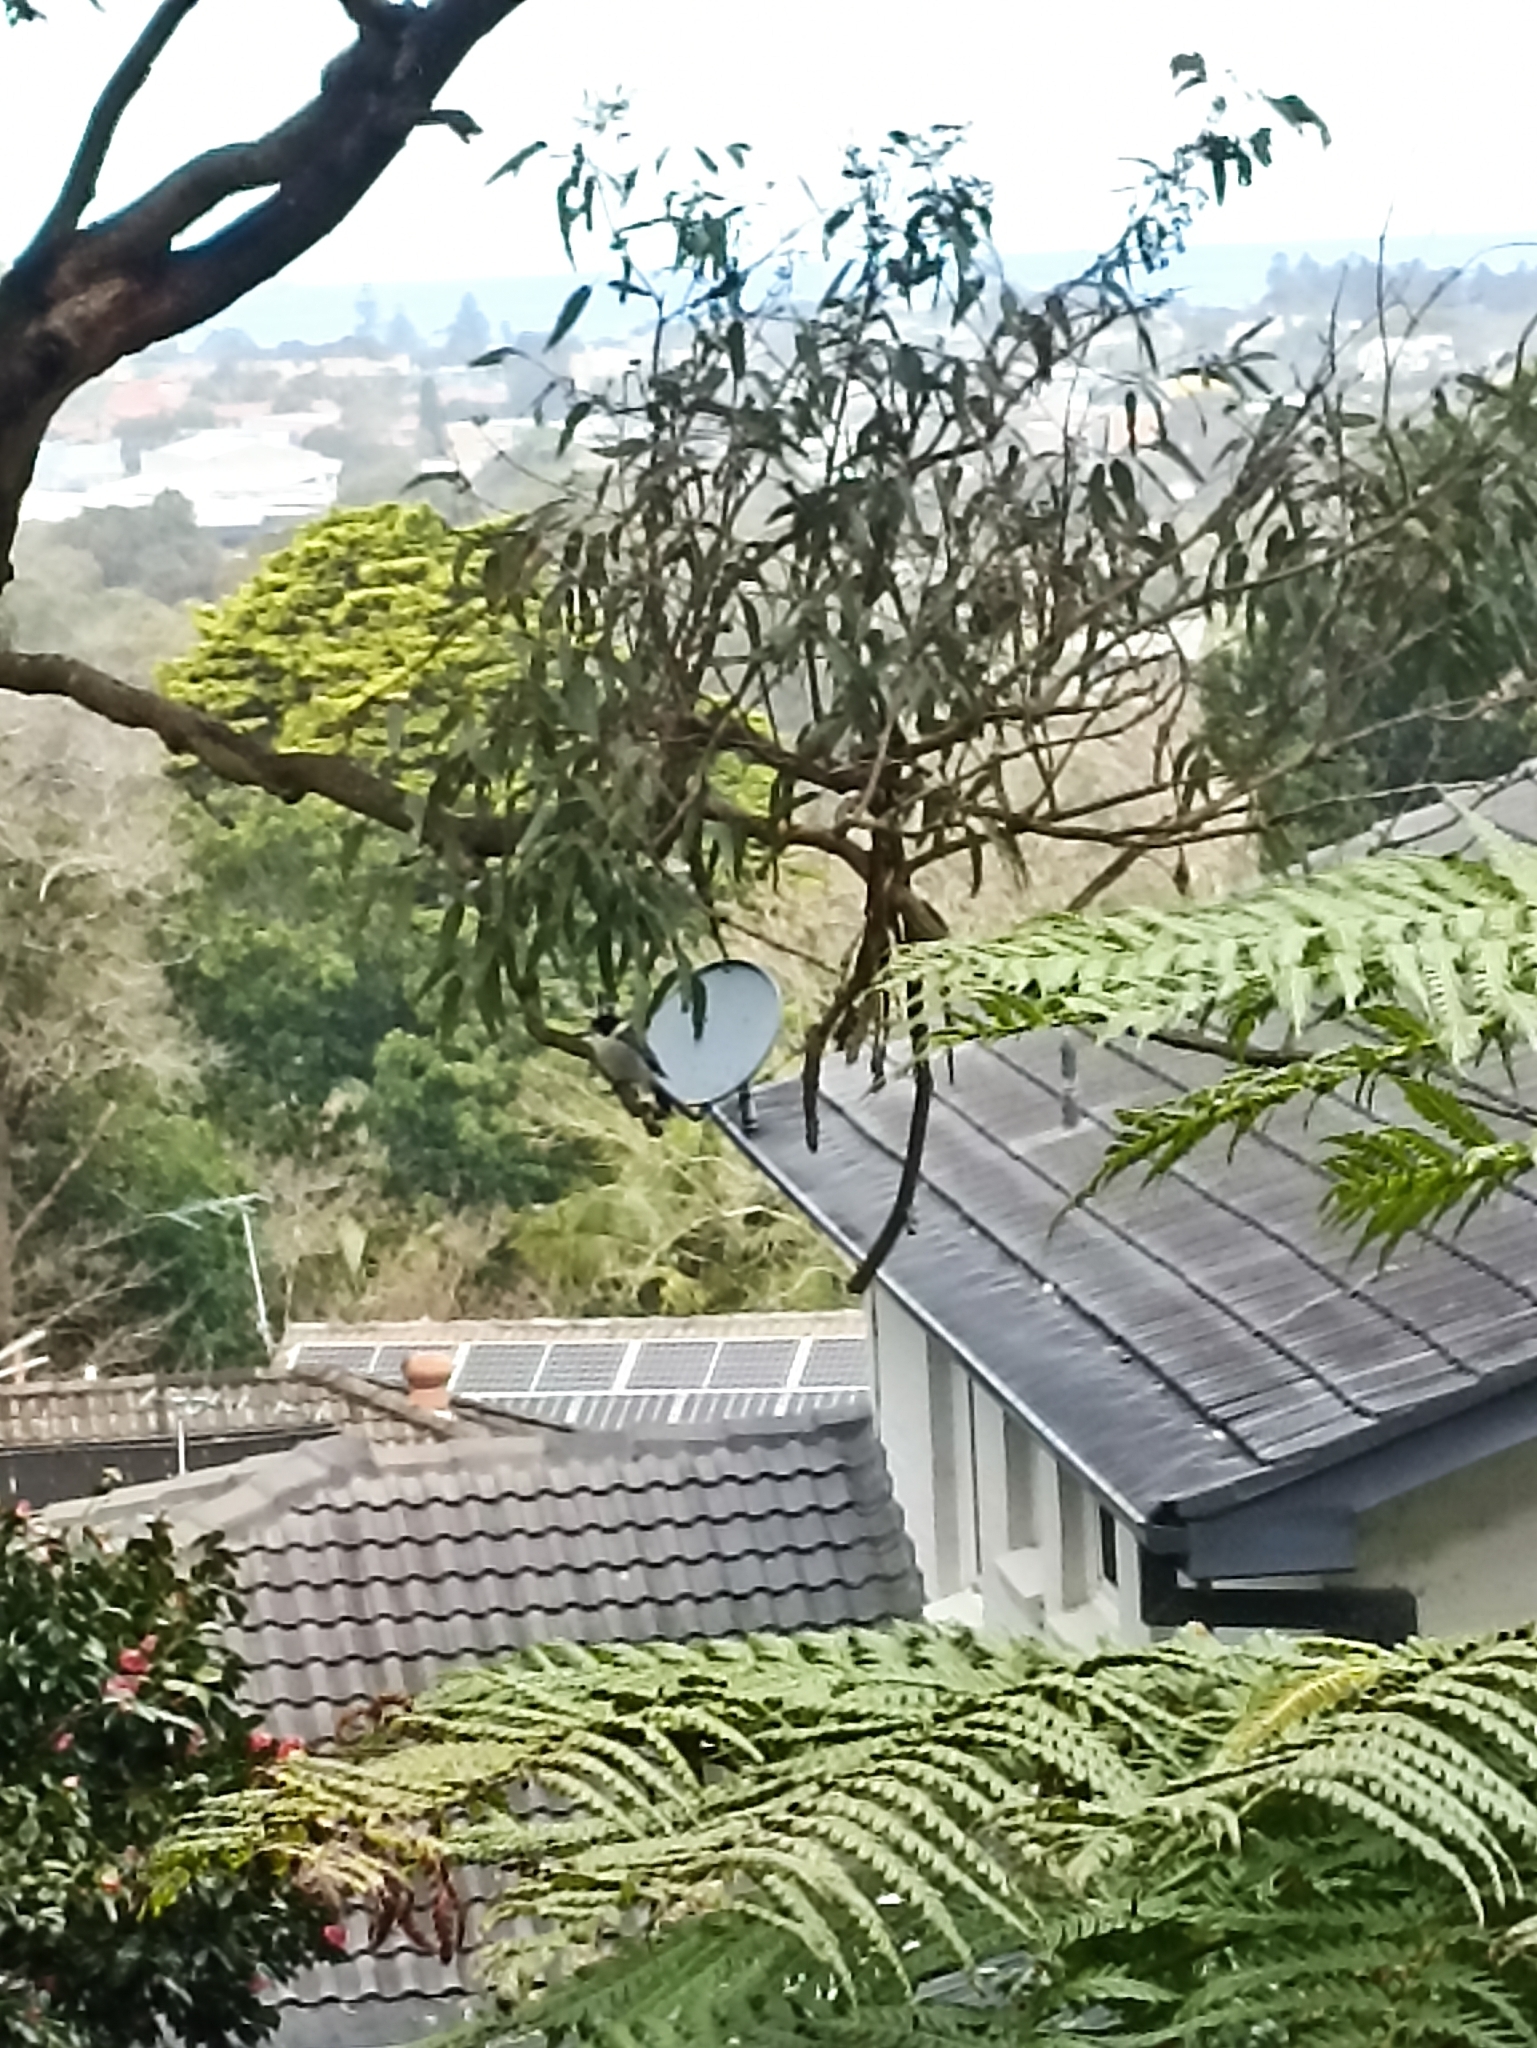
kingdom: Animalia
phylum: Chordata
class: Aves
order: Passeriformes
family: Cracticidae
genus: Cracticus
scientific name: Cracticus torquatus
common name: Grey butcherbird
